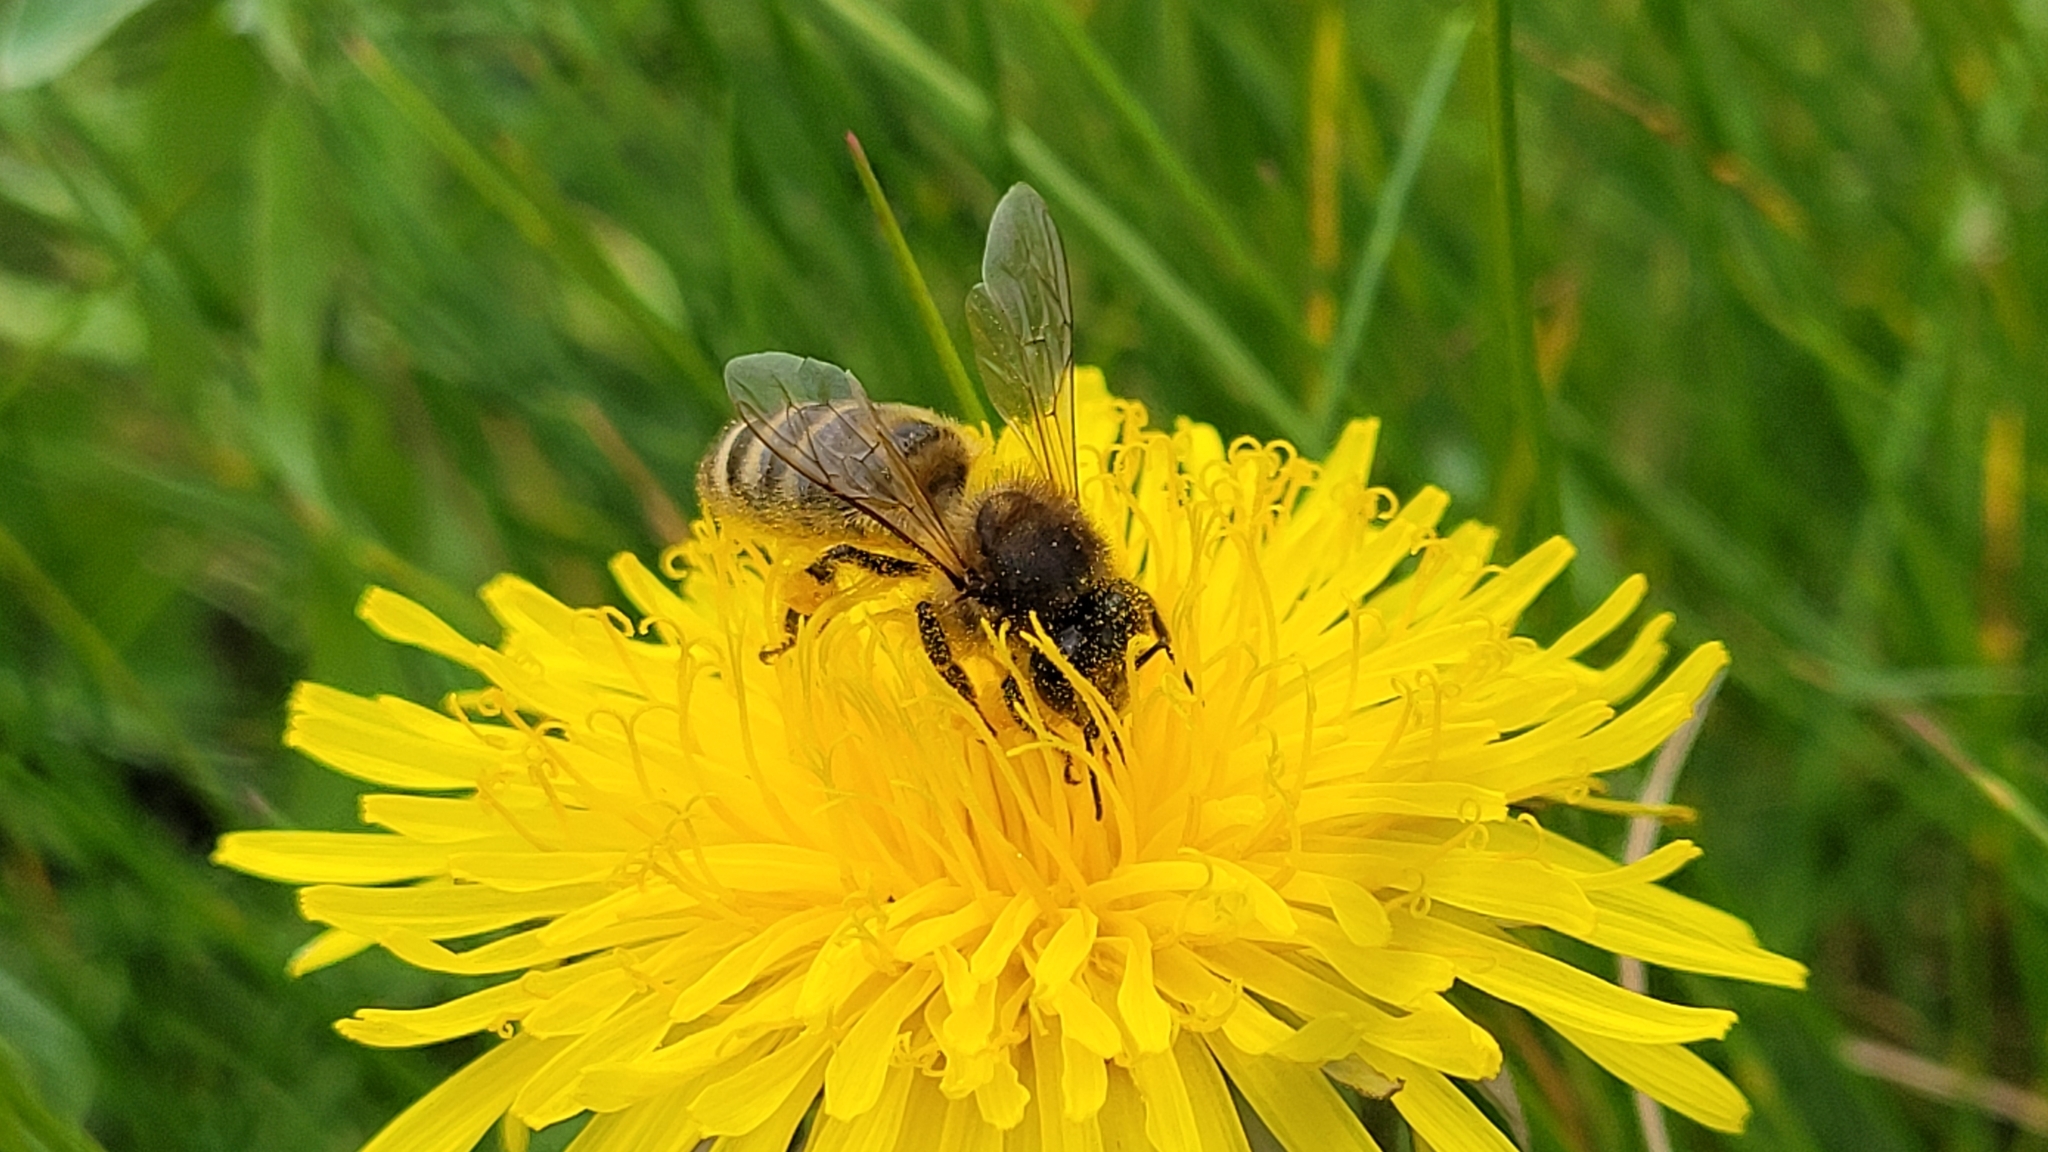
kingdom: Animalia
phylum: Arthropoda
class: Insecta
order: Hymenoptera
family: Apidae
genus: Apis
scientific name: Apis mellifera
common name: Honey bee
